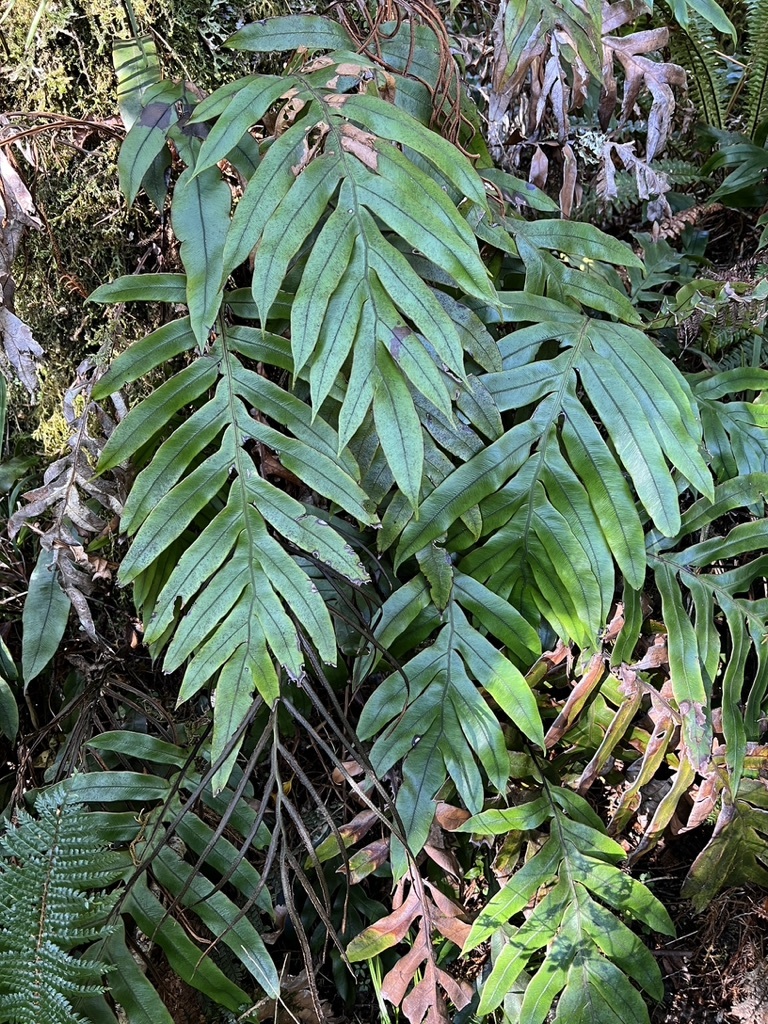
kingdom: Plantae
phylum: Tracheophyta
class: Polypodiopsida
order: Polypodiales
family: Blechnaceae
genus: Austroblechnum
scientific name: Austroblechnum colensoi
